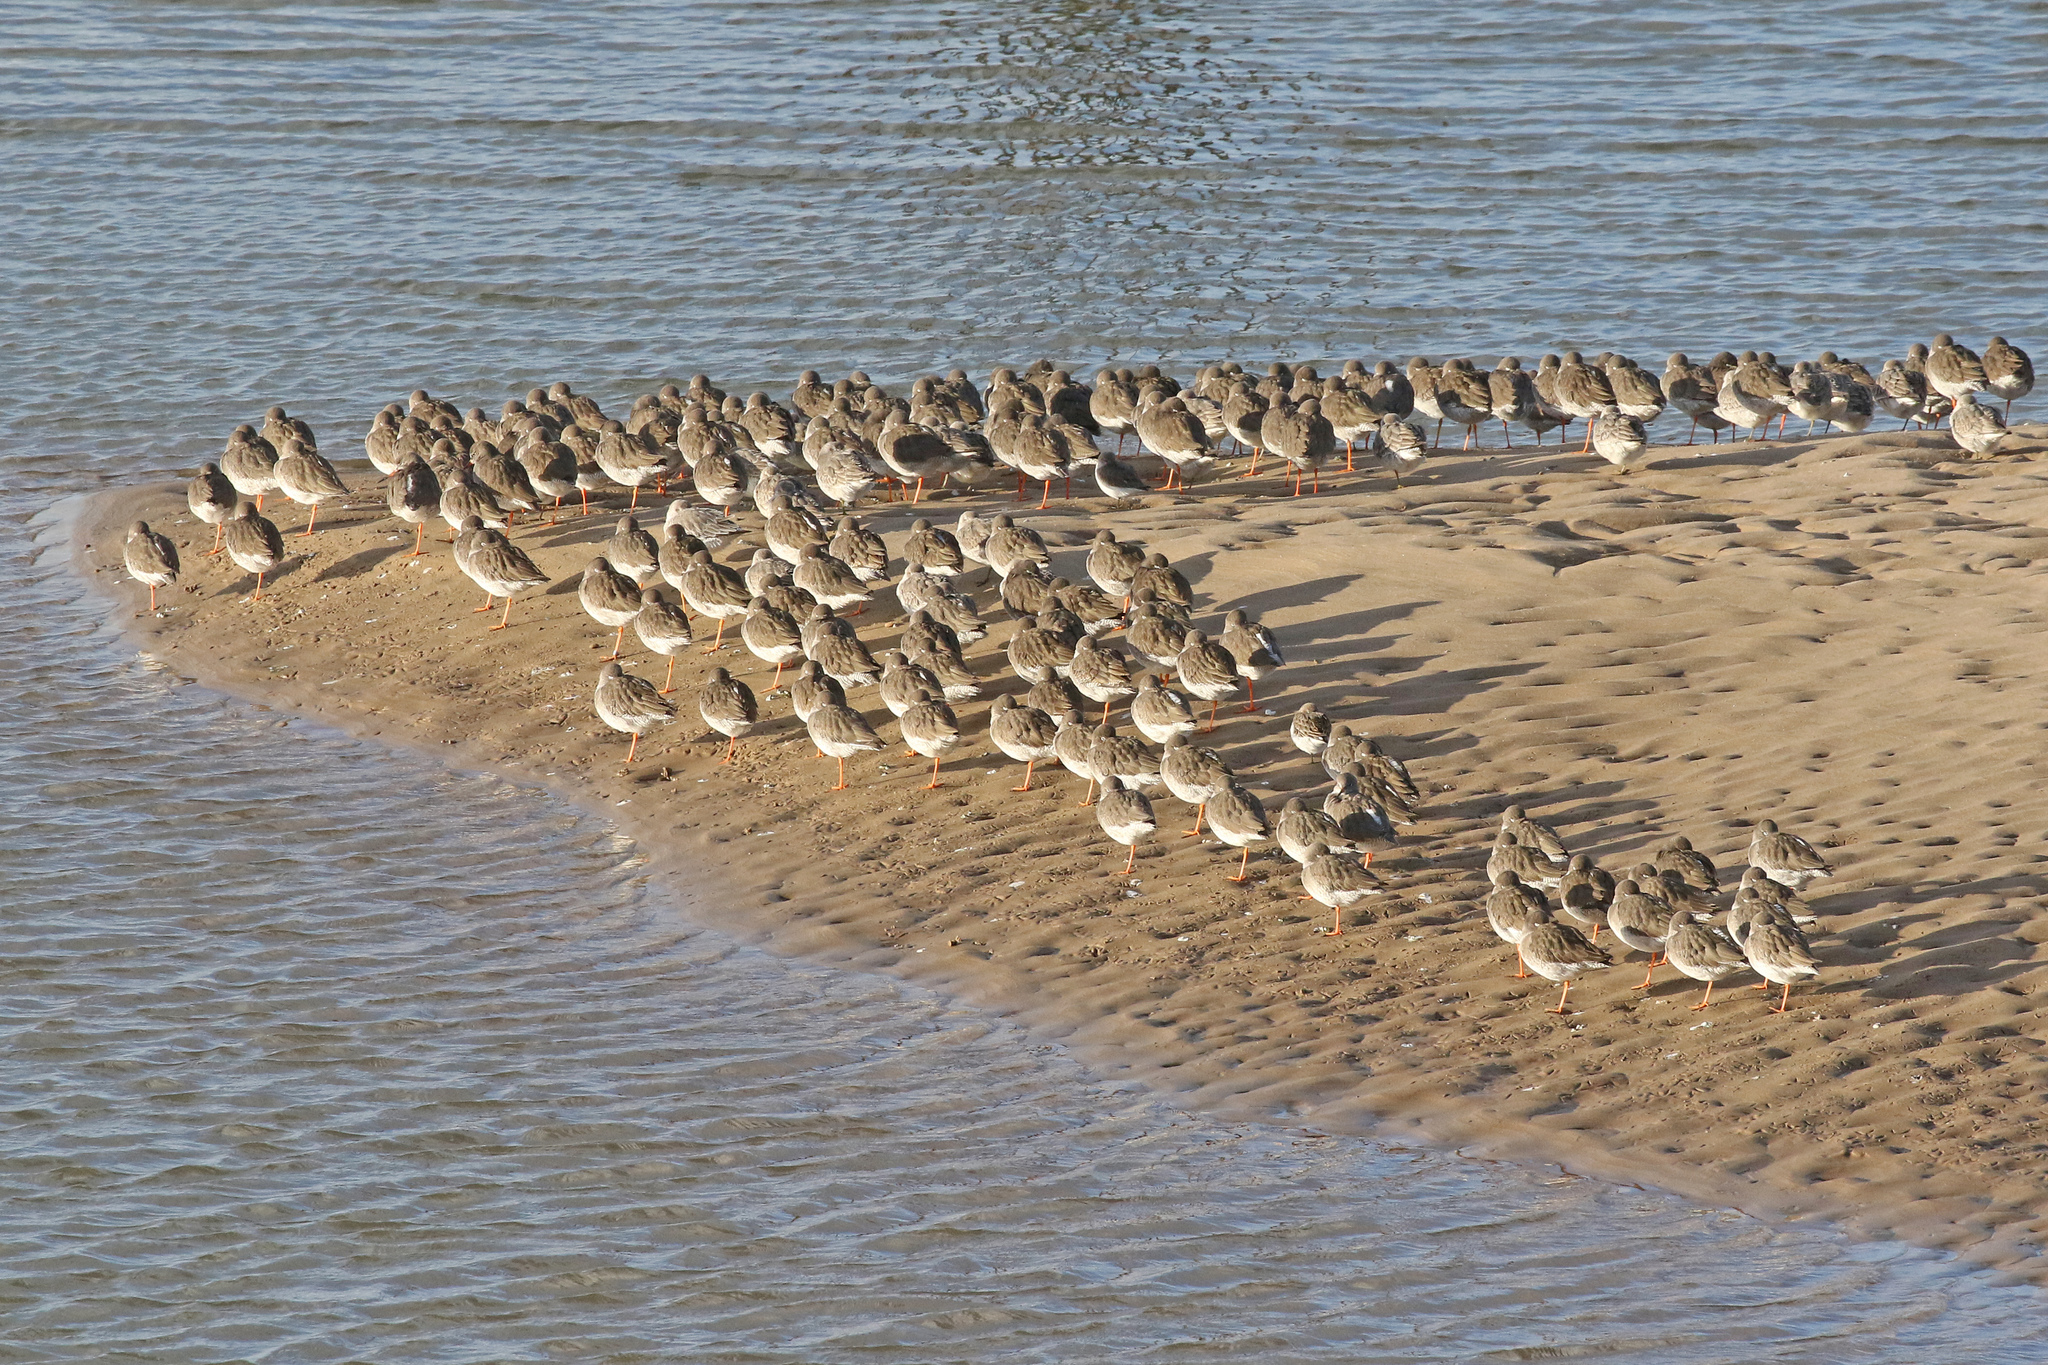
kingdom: Animalia
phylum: Chordata
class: Aves
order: Charadriiformes
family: Scolopacidae
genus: Tringa
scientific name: Tringa totanus
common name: Common redshank
